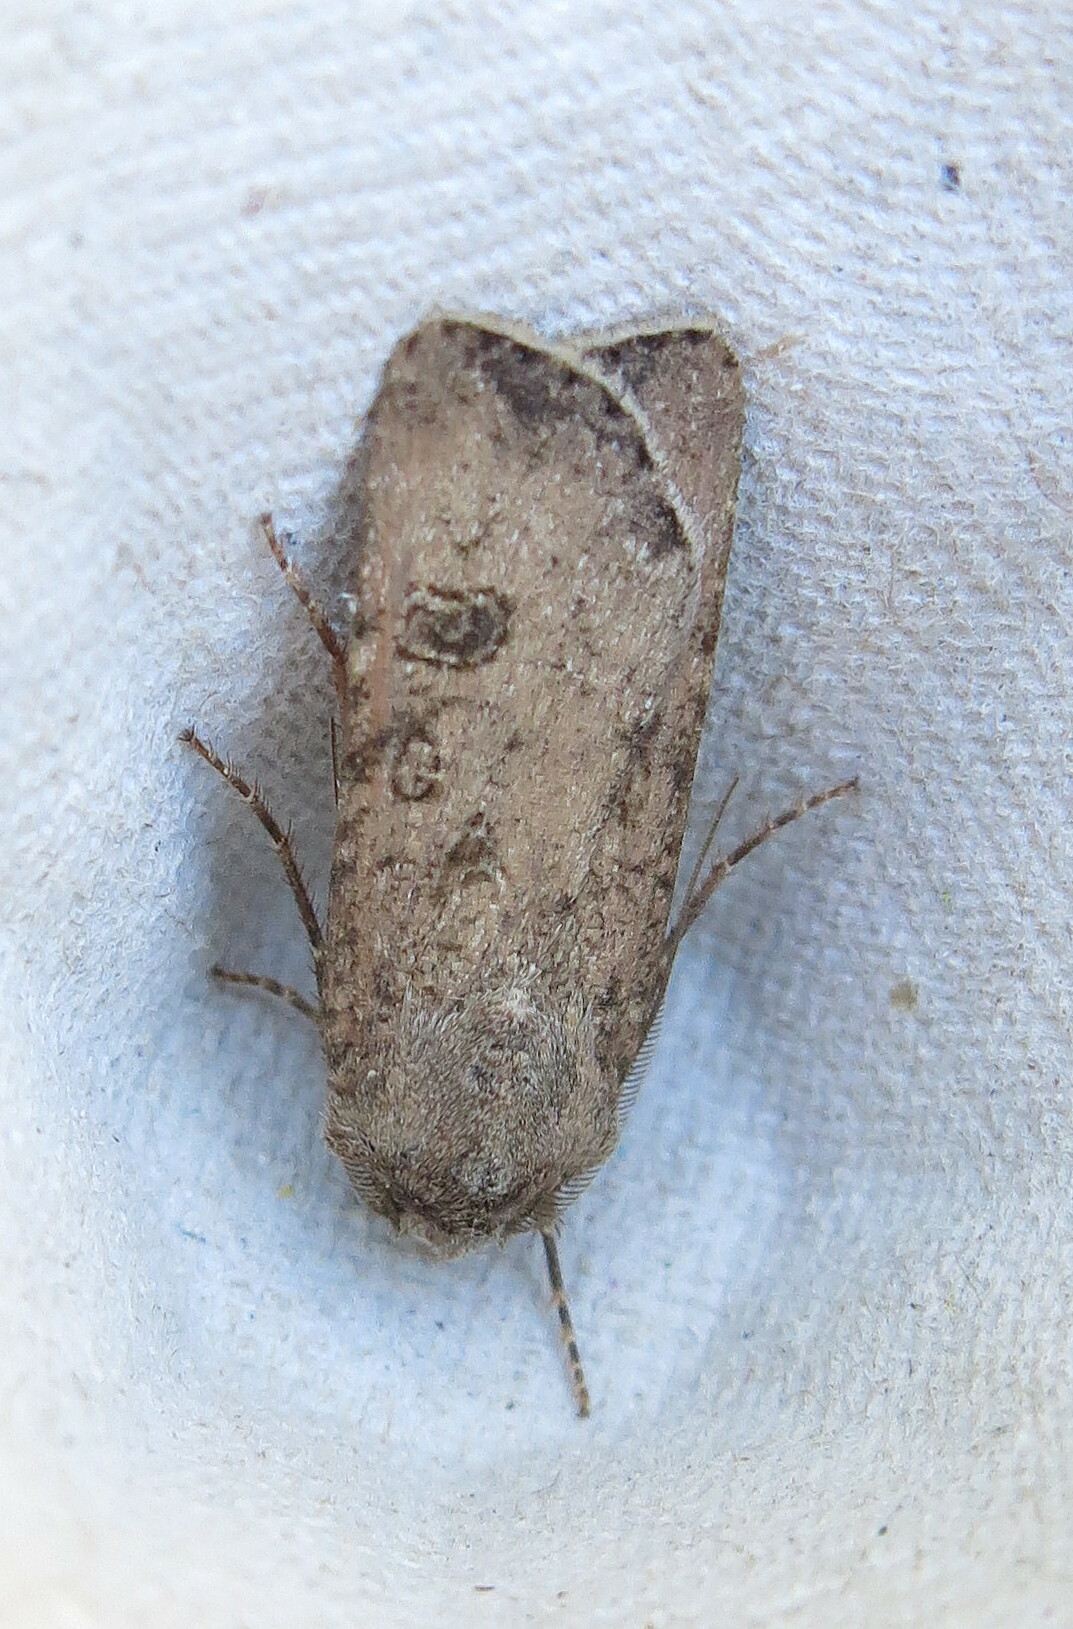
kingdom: Animalia
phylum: Arthropoda
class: Insecta
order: Lepidoptera
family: Noctuidae
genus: Agrotis
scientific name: Agrotis segetum
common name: Turnip moth
